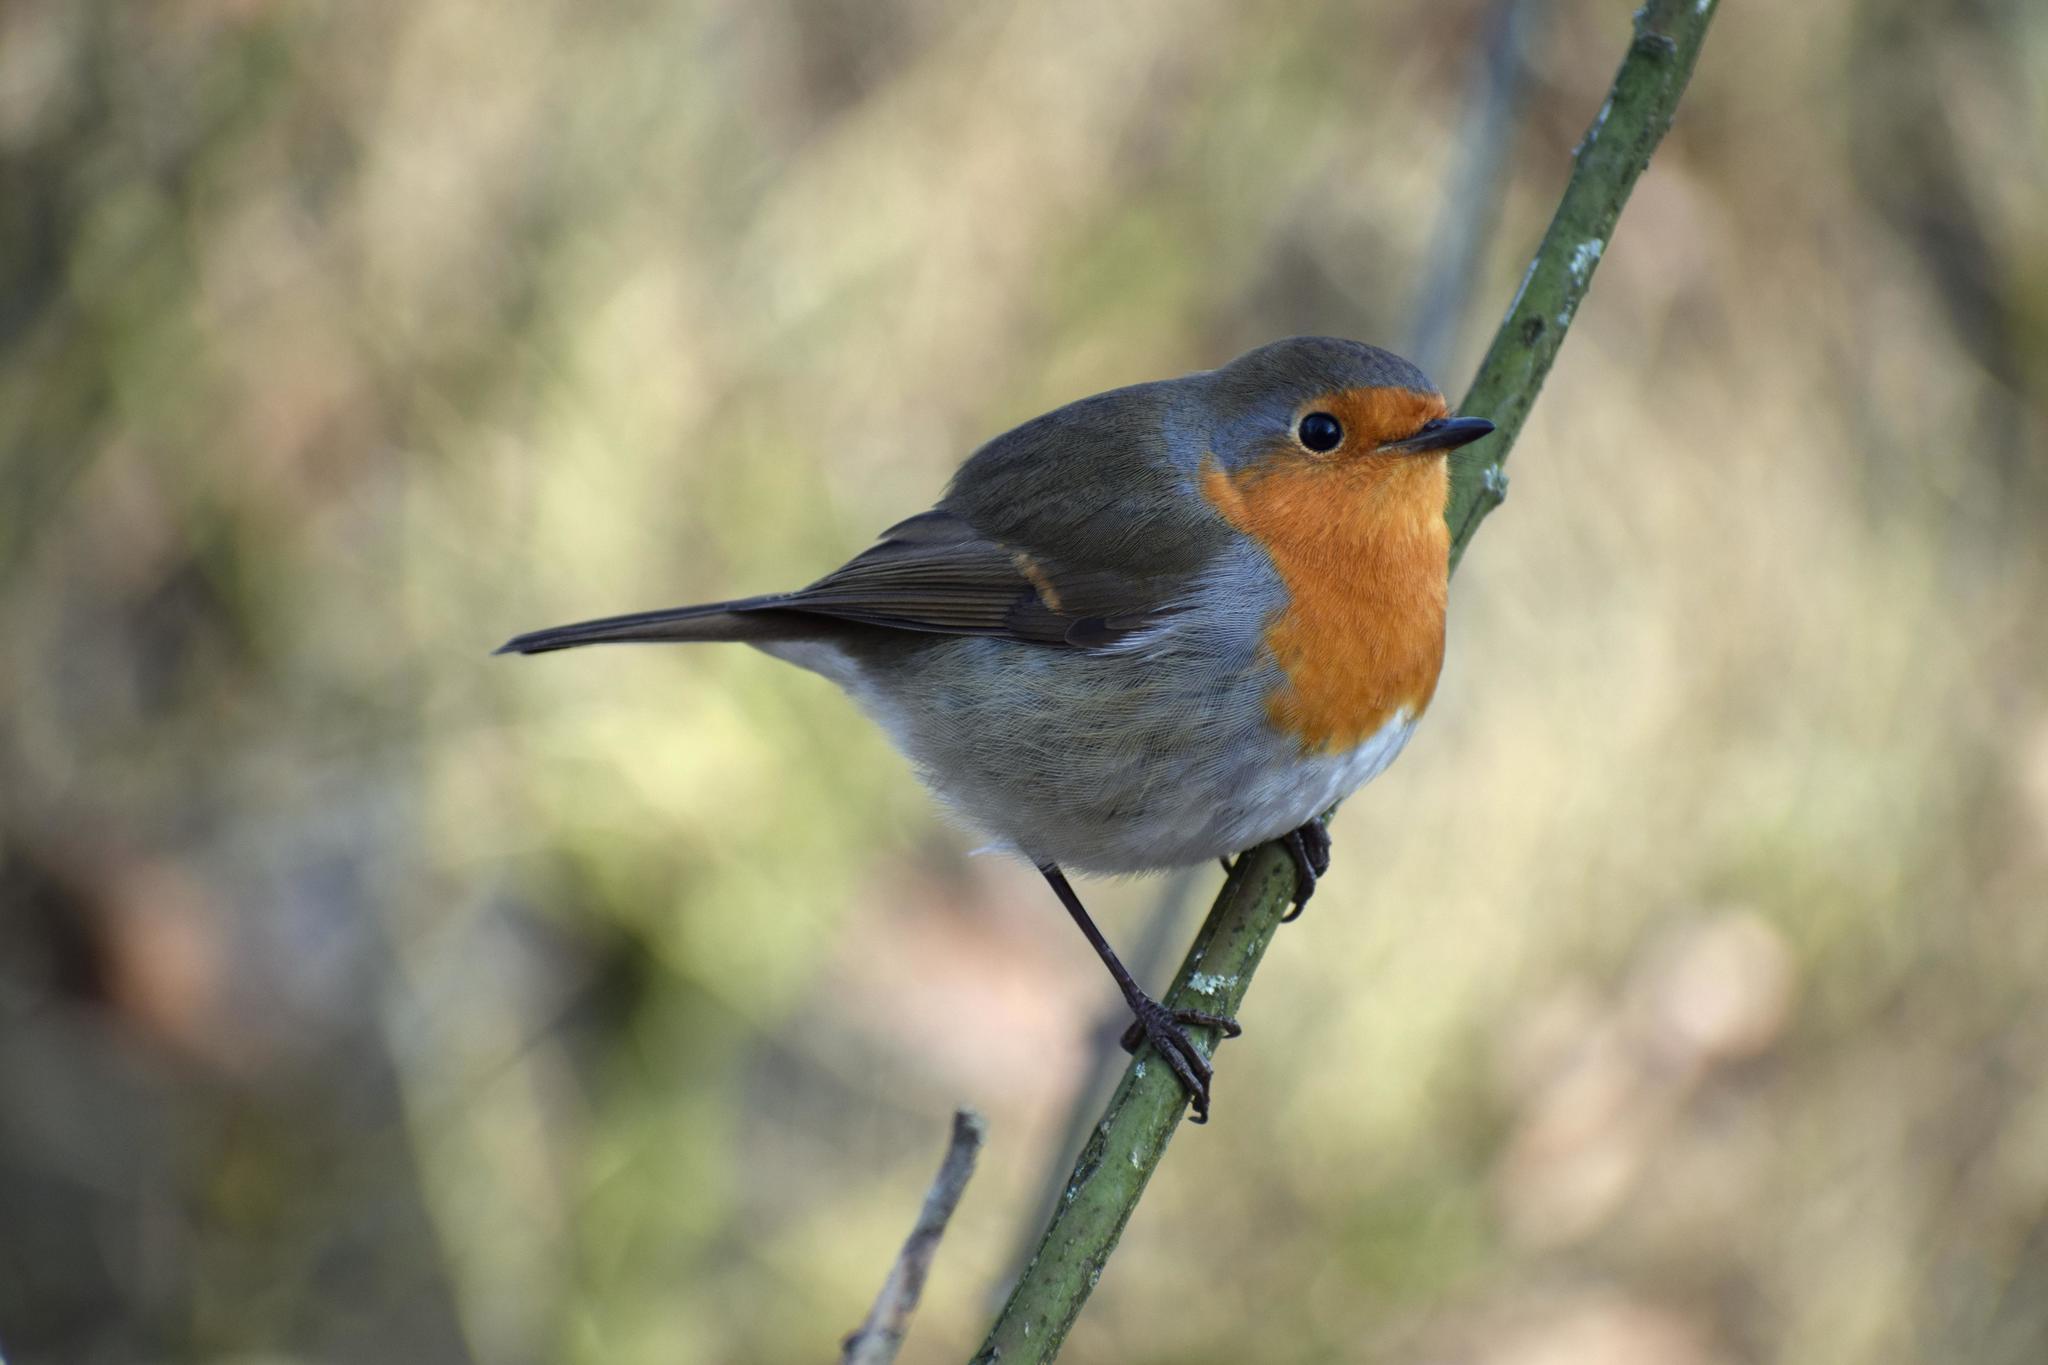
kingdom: Animalia
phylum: Chordata
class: Aves
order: Passeriformes
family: Muscicapidae
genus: Erithacus
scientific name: Erithacus rubecula
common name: European robin
